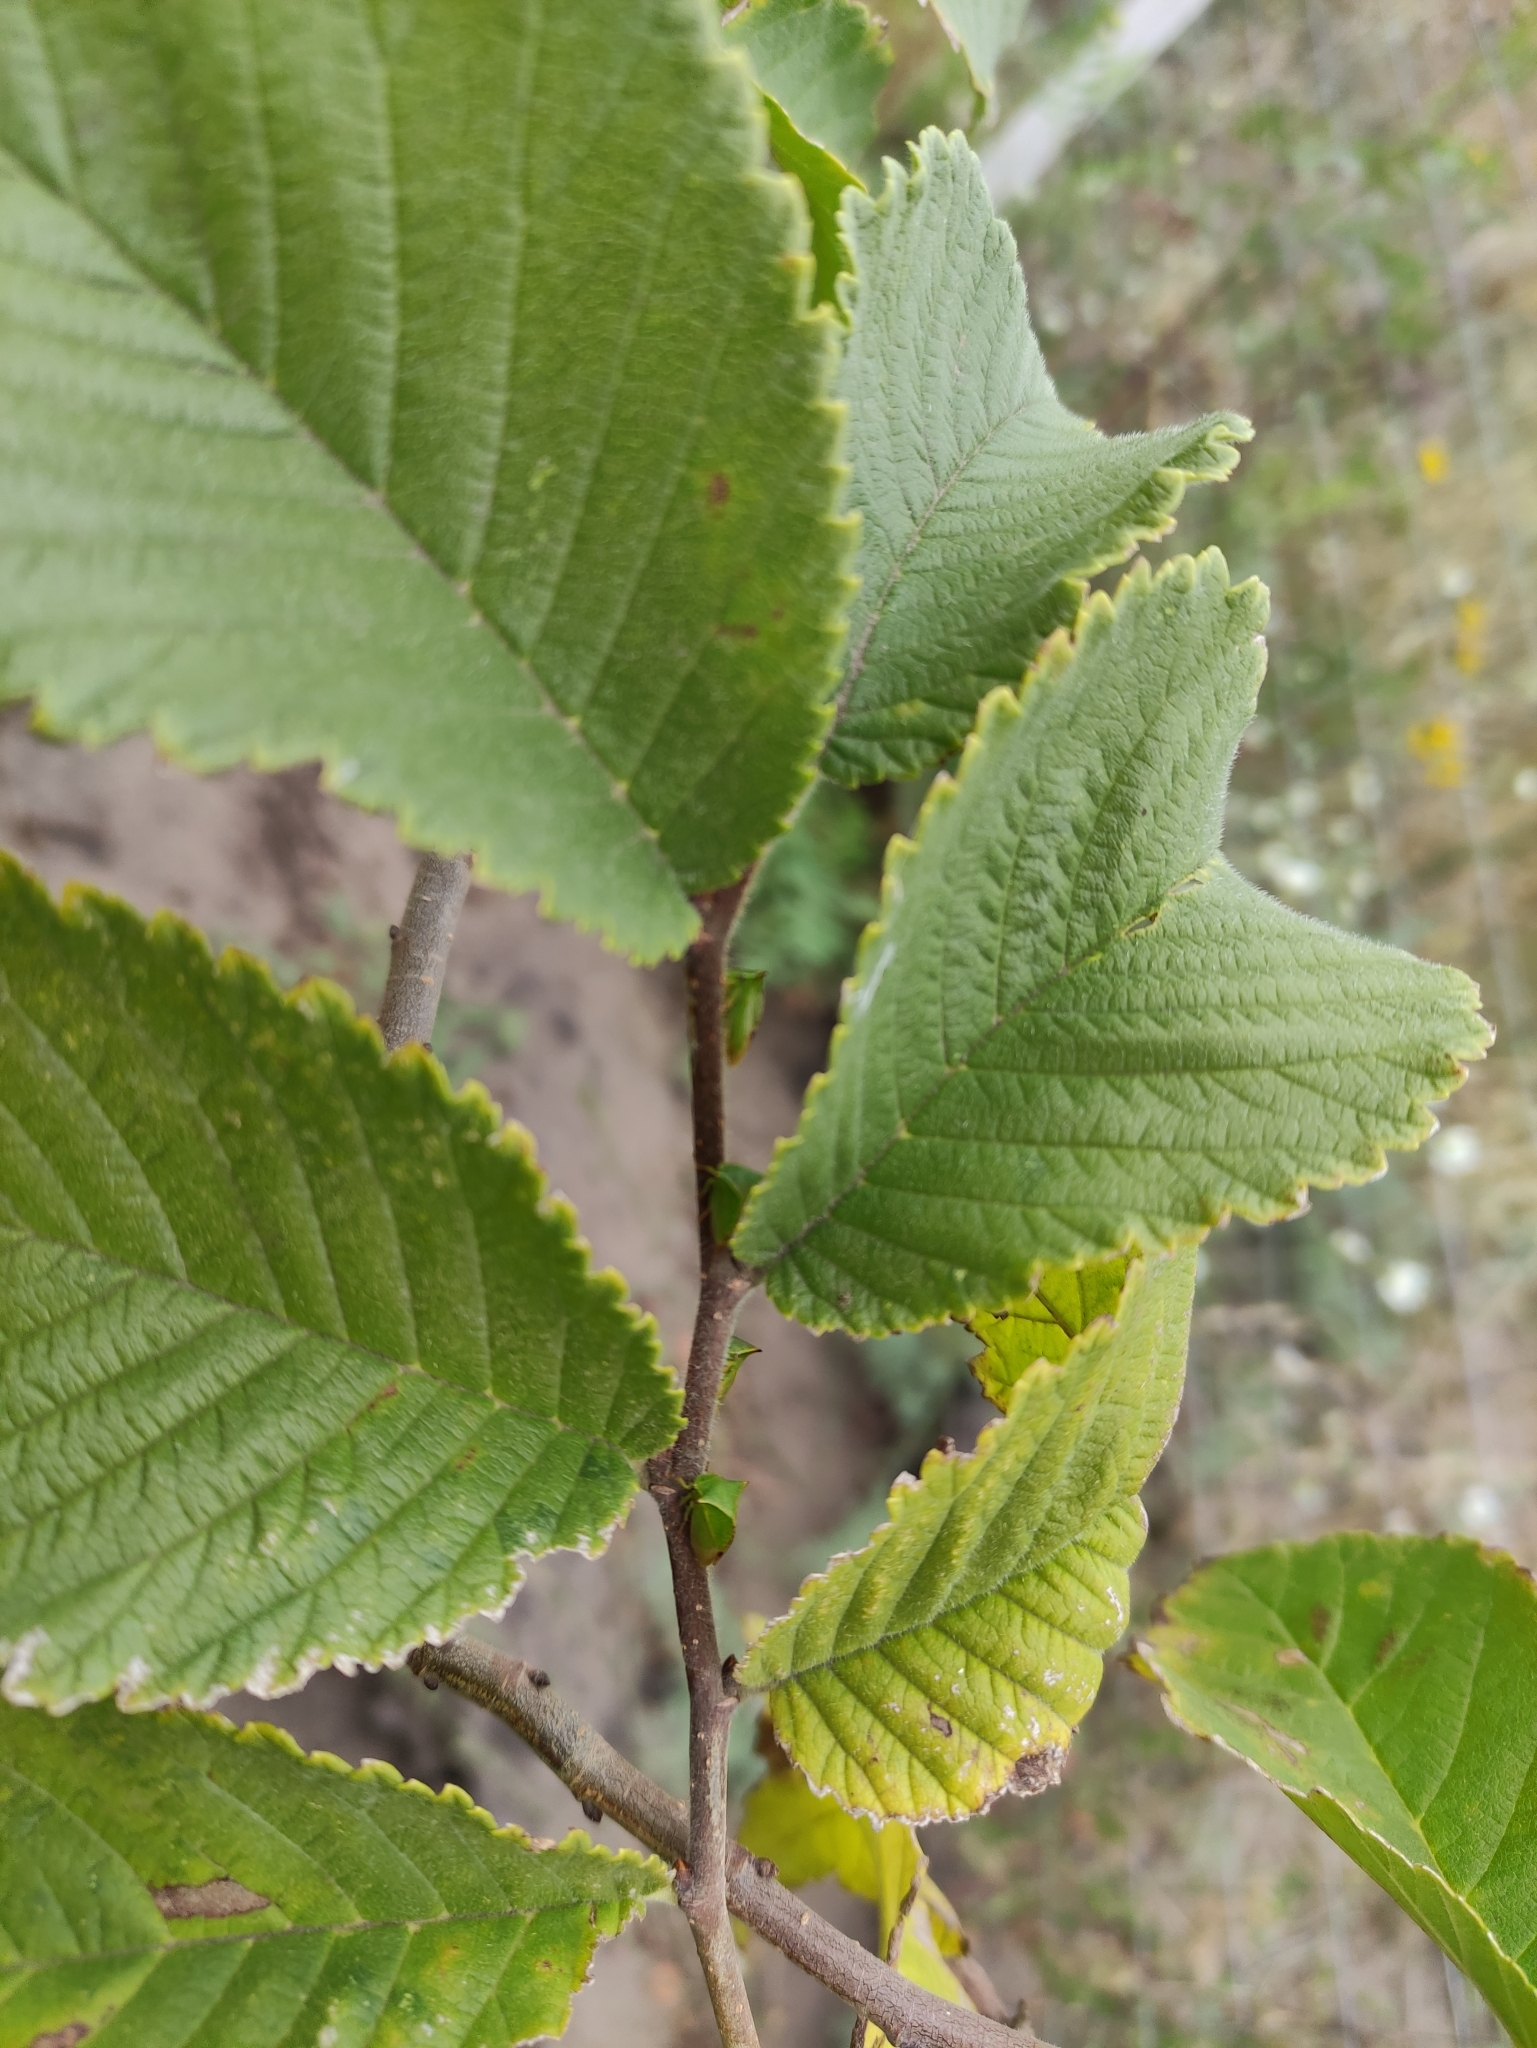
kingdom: Animalia
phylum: Arthropoda
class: Insecta
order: Hemiptera
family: Membracidae
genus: Stictocephala
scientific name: Stictocephala bisonia
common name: American buffalo treehopper
